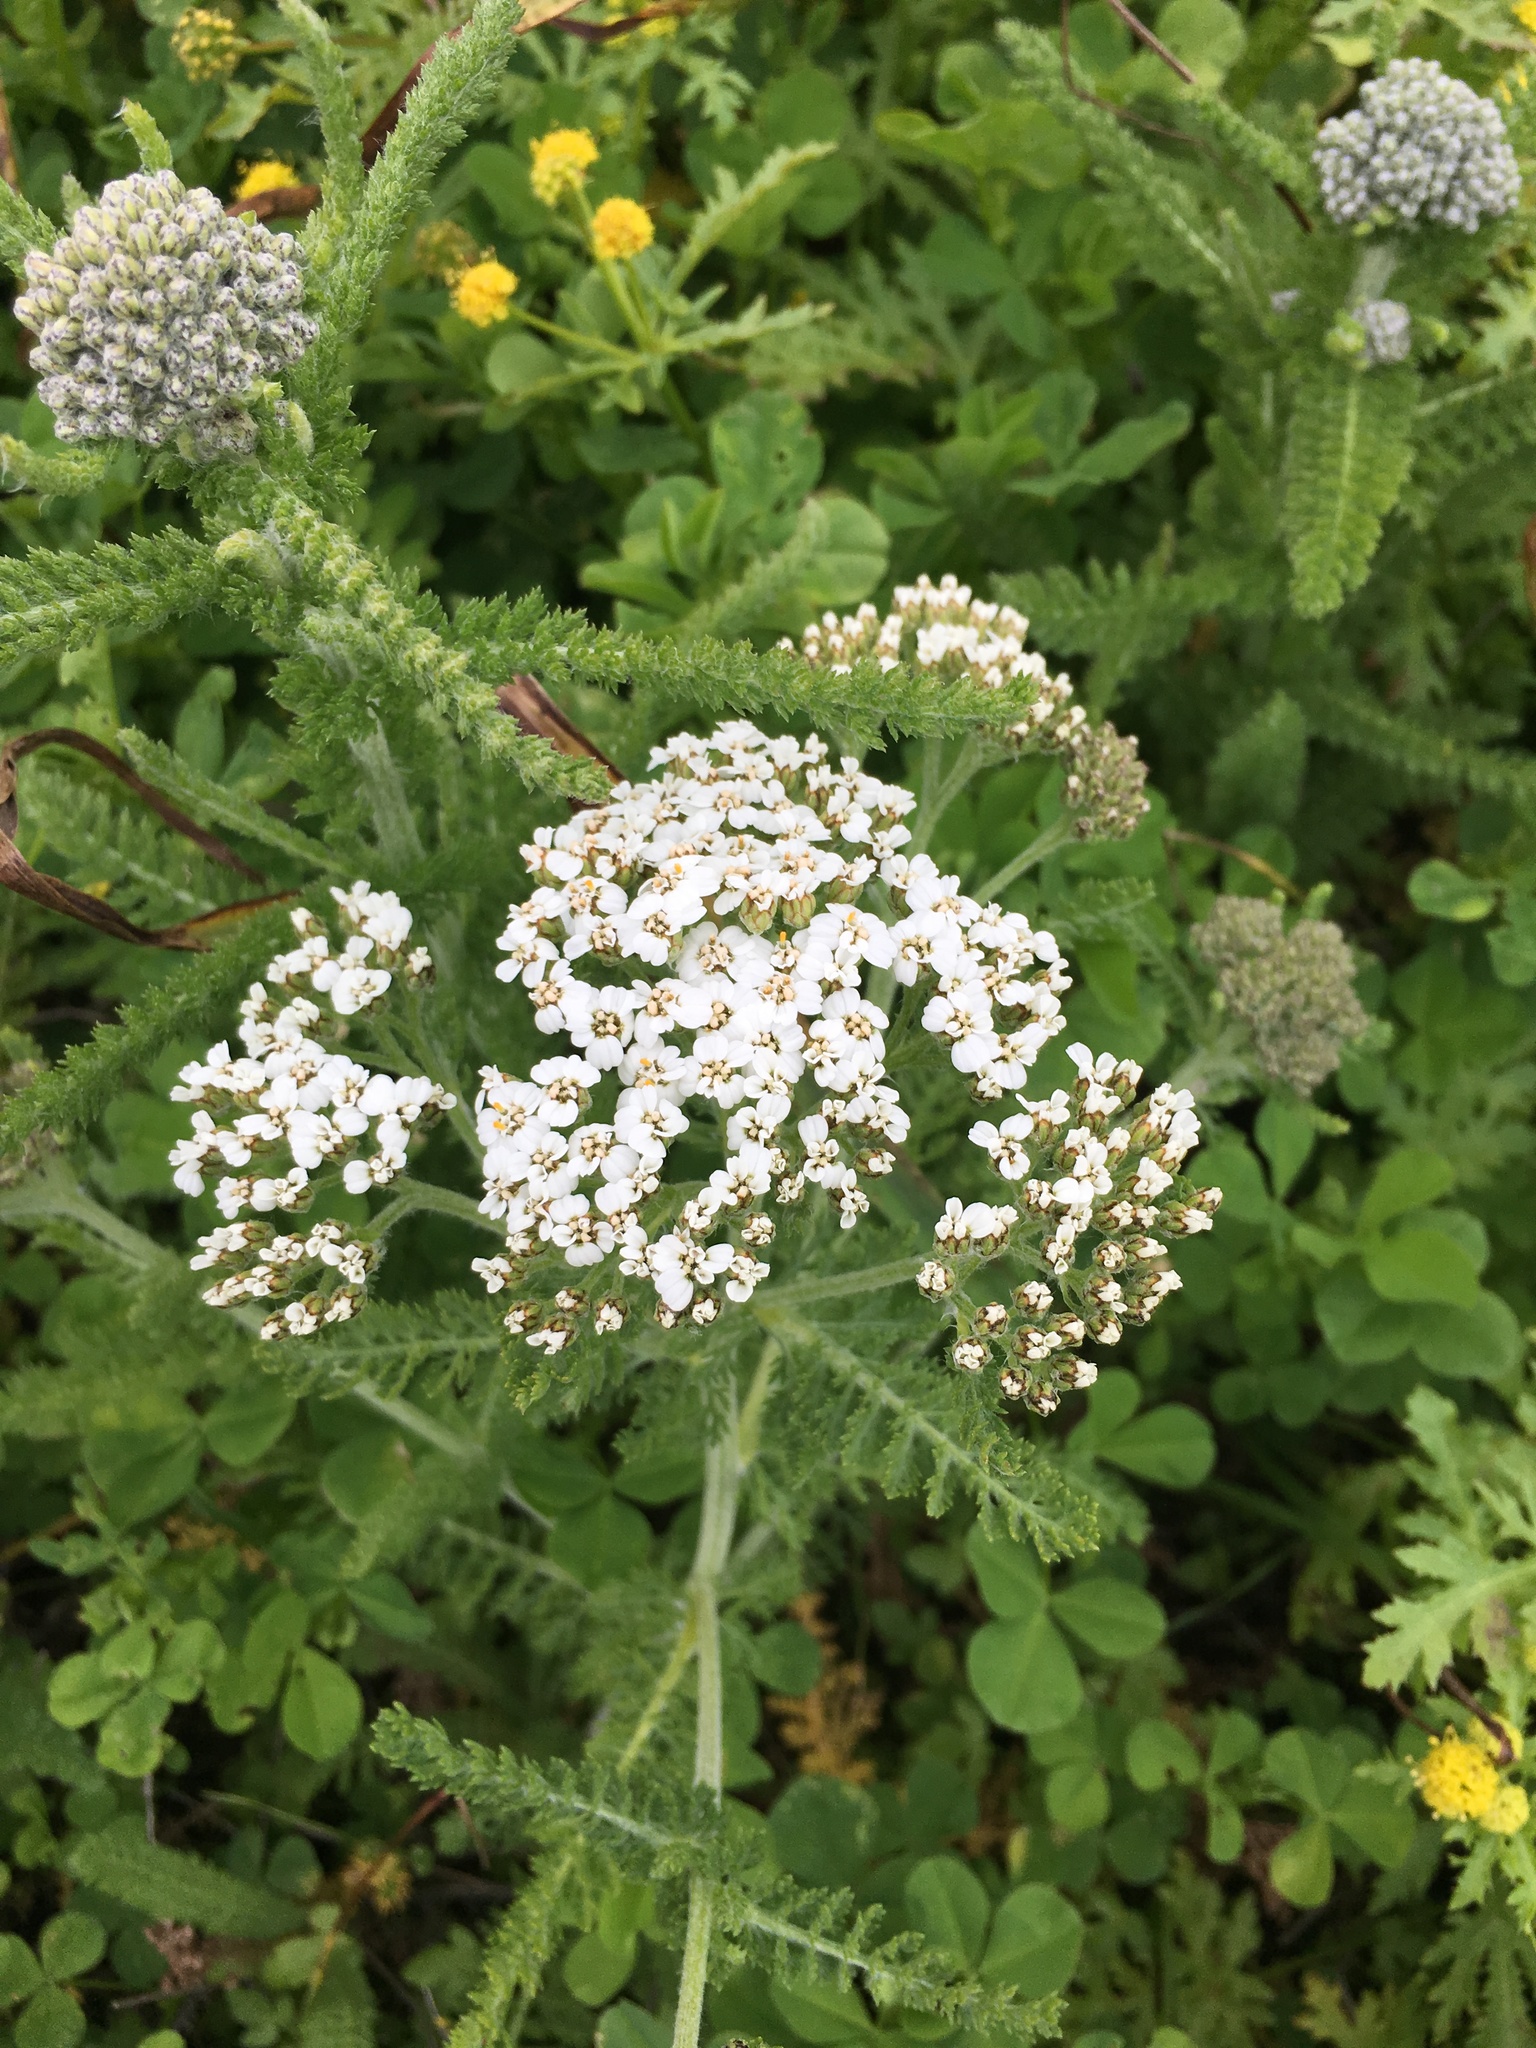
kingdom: Plantae
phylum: Tracheophyta
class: Magnoliopsida
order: Asterales
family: Asteraceae
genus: Achillea
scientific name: Achillea millefolium
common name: Yarrow
